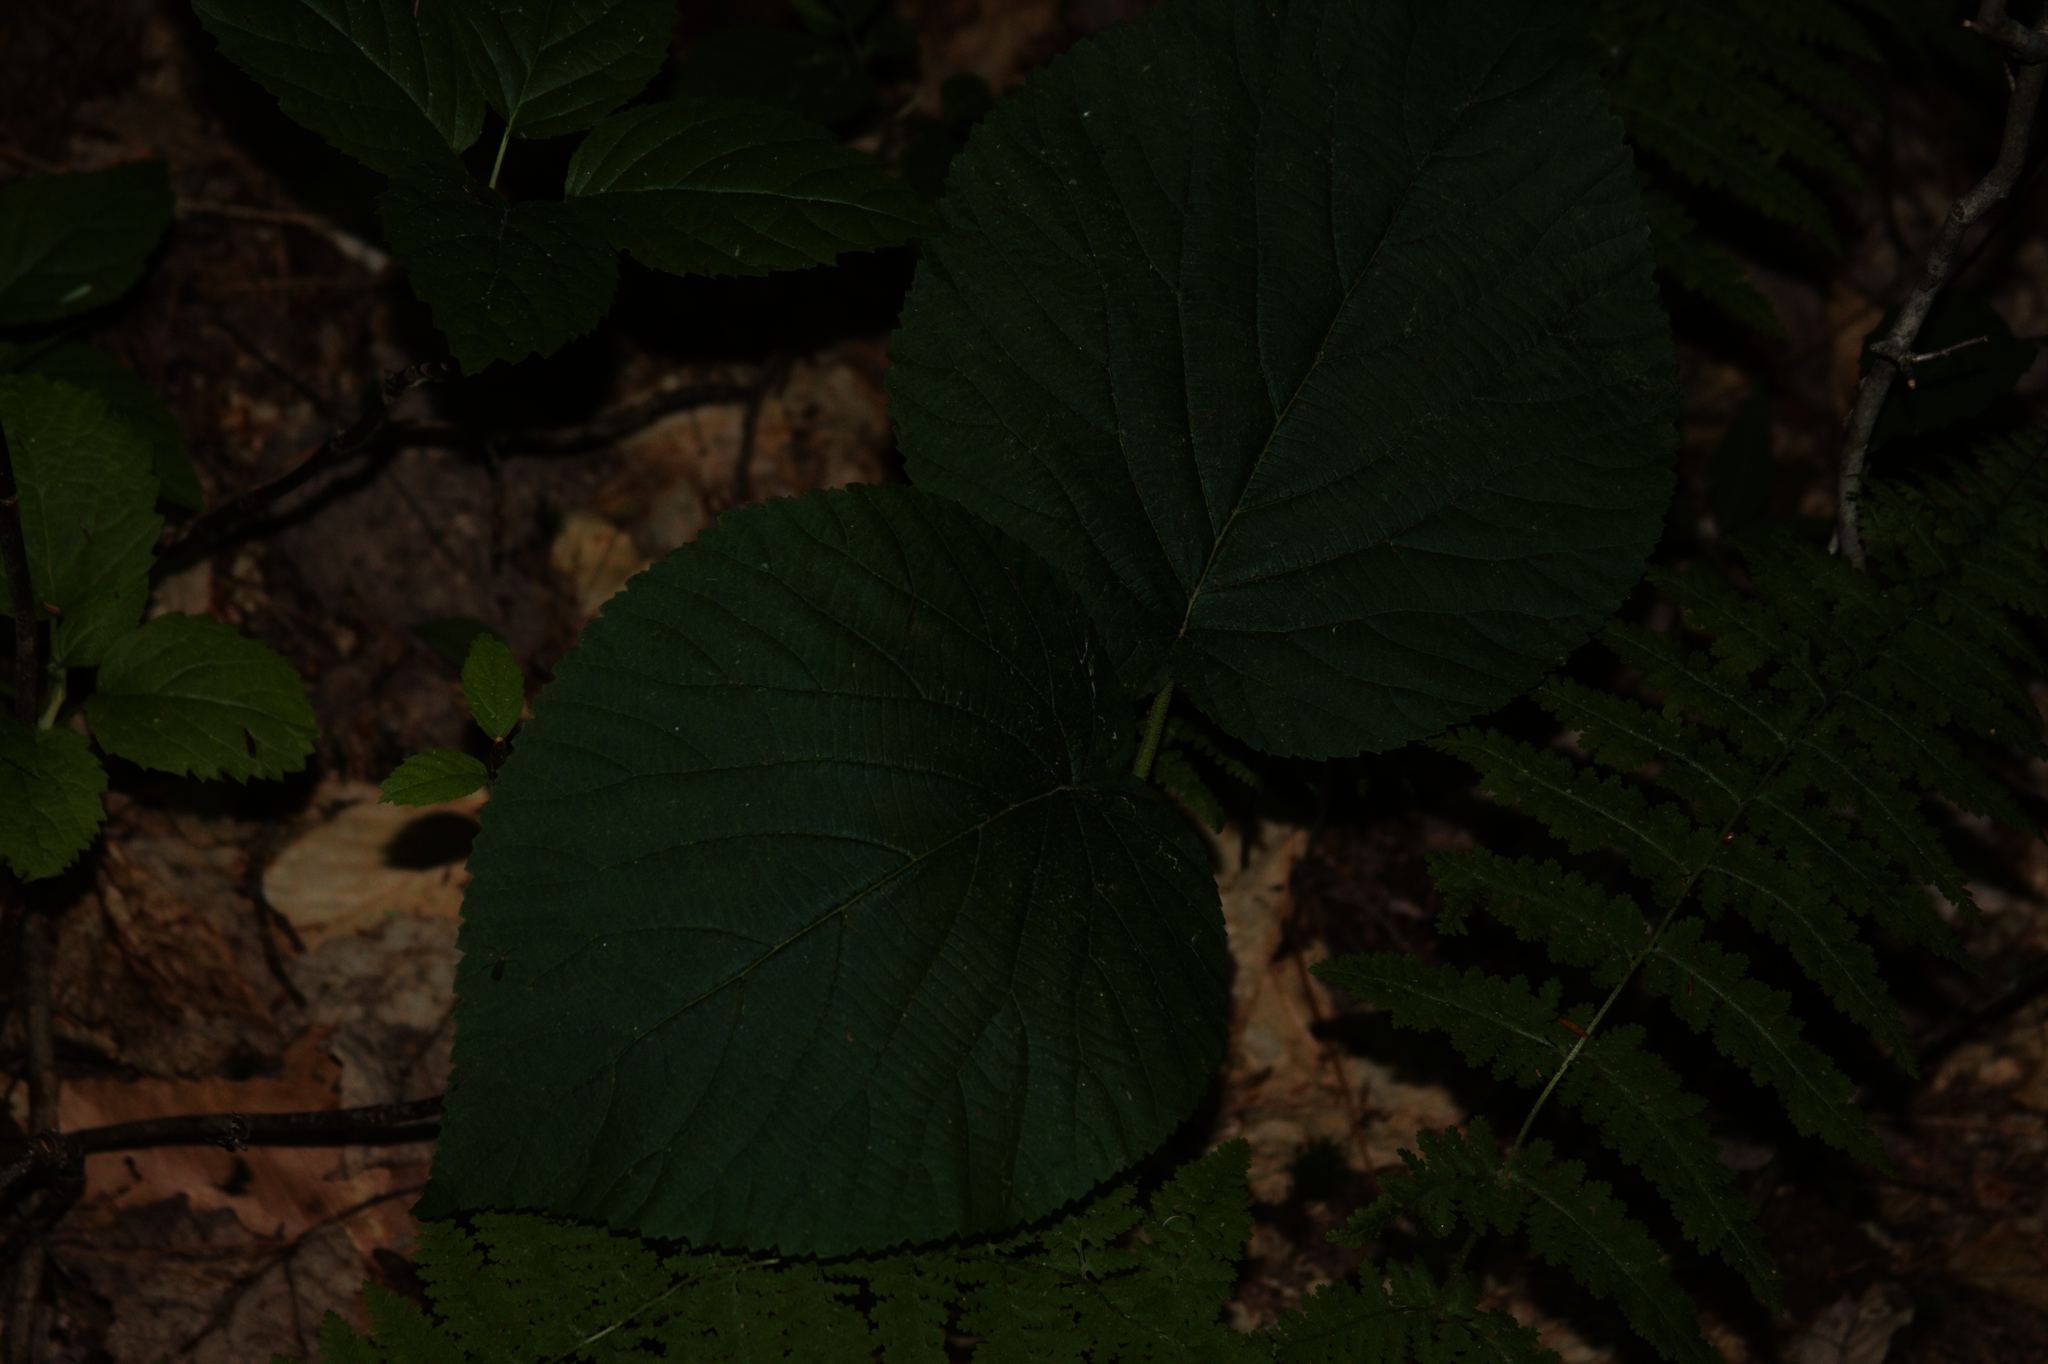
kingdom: Plantae
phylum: Tracheophyta
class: Magnoliopsida
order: Dipsacales
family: Viburnaceae
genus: Viburnum
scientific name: Viburnum lantanoides
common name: Hobblebush
